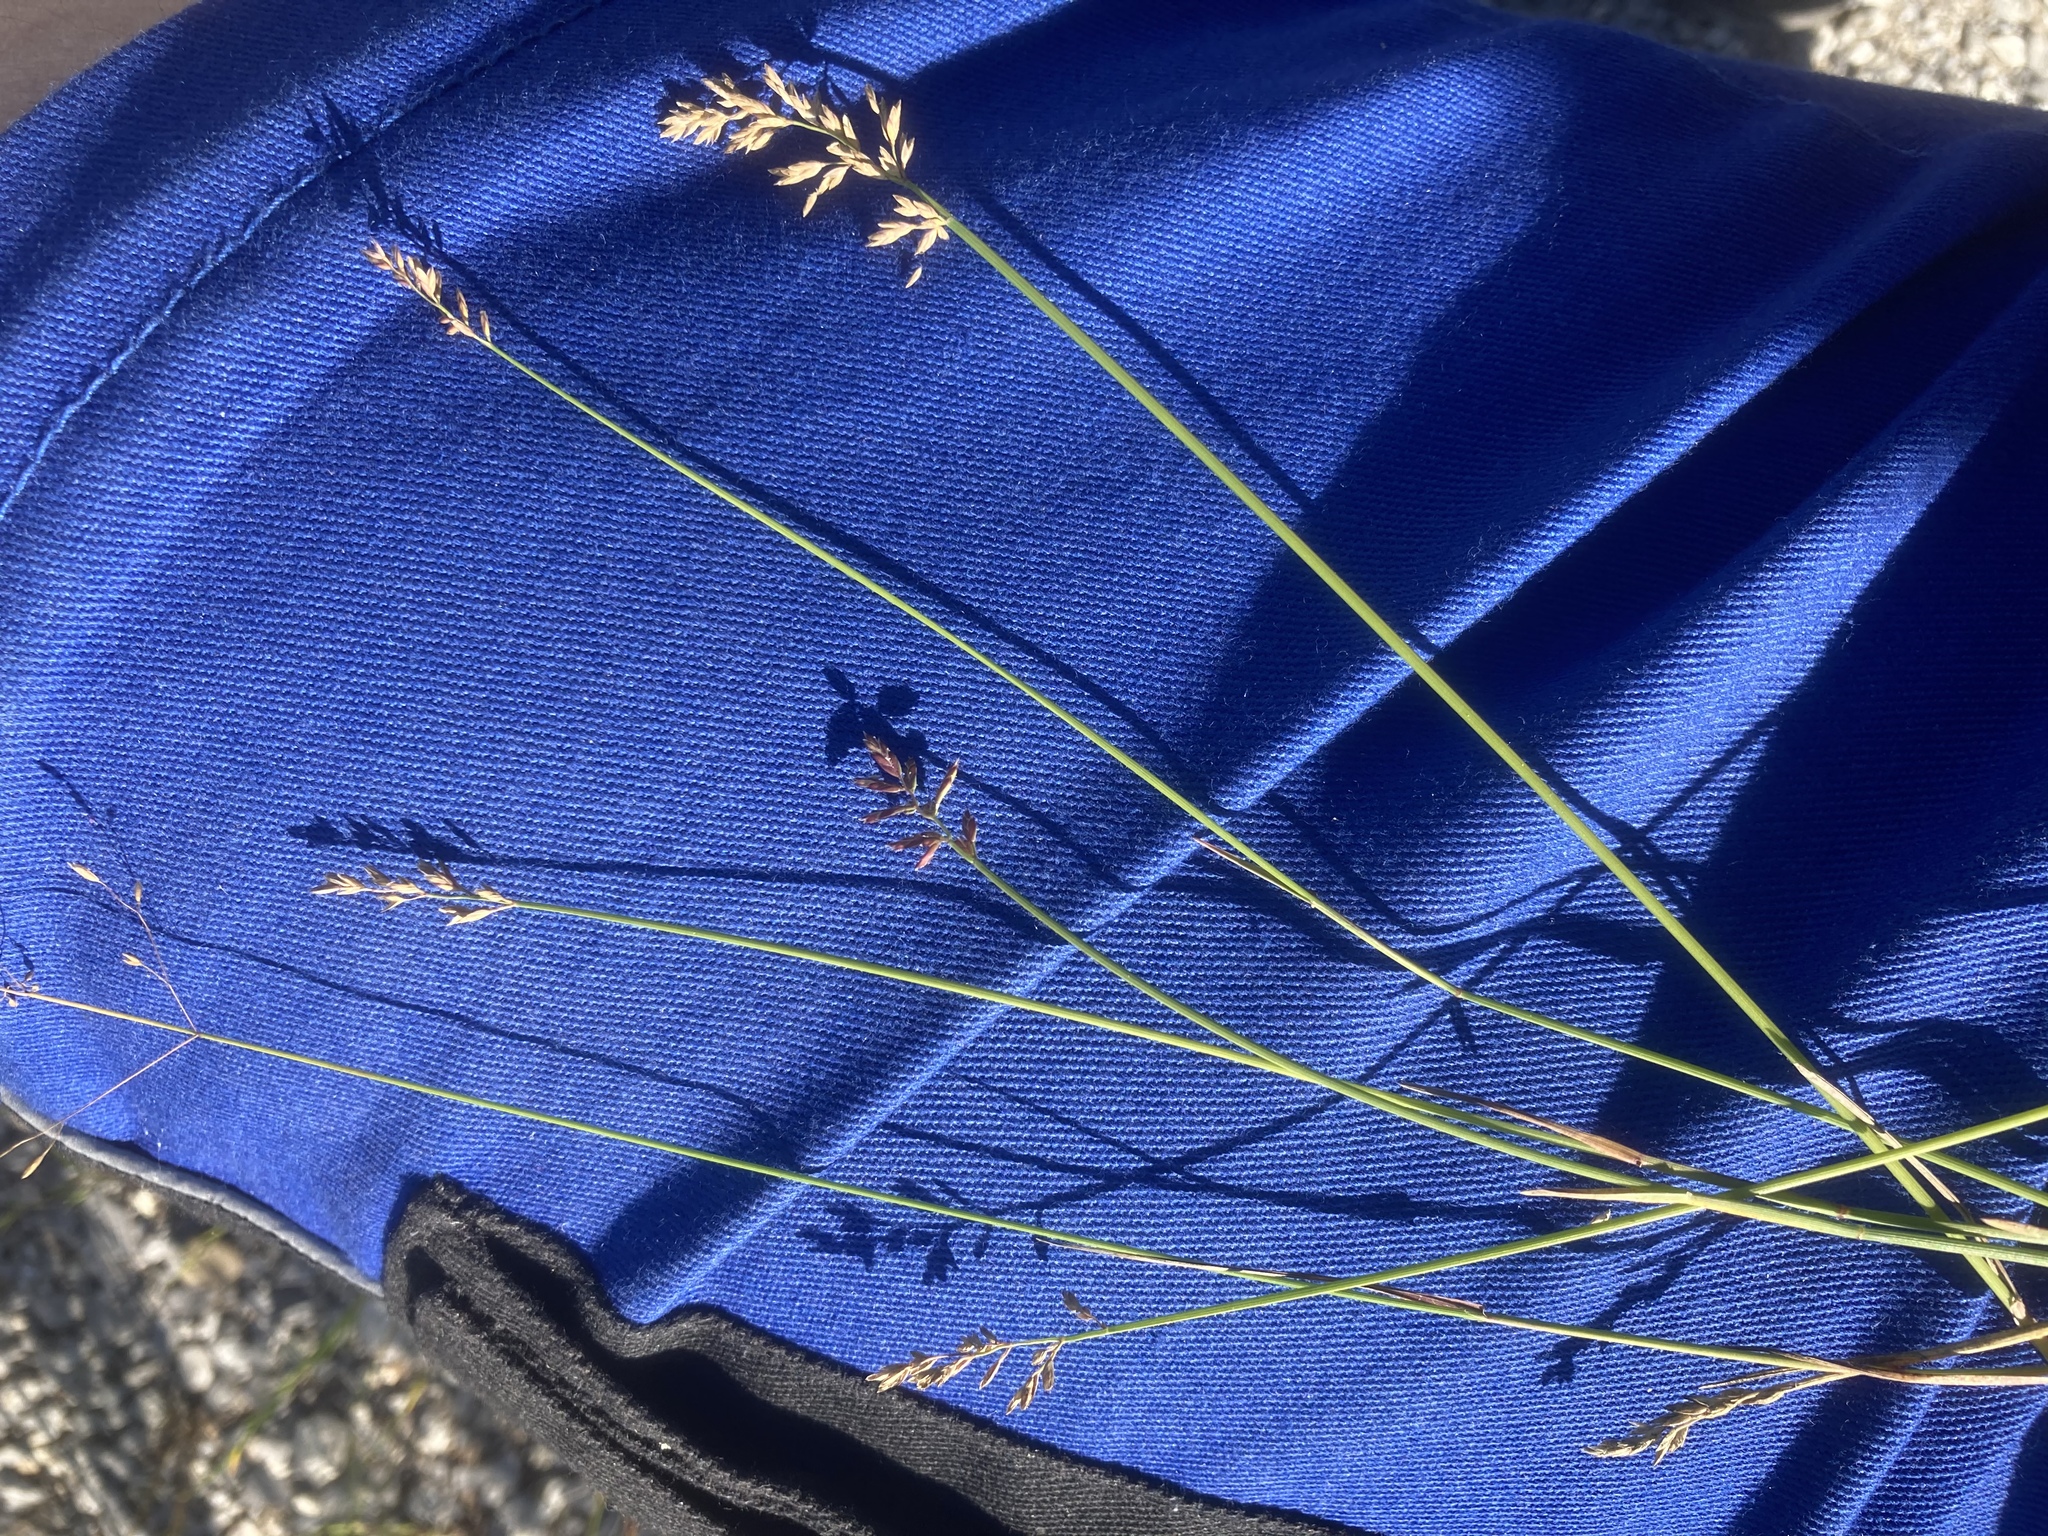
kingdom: Plantae
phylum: Tracheophyta
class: Liliopsida
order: Poales
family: Poaceae
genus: Poa
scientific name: Poa compressa
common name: Canada bluegrass
